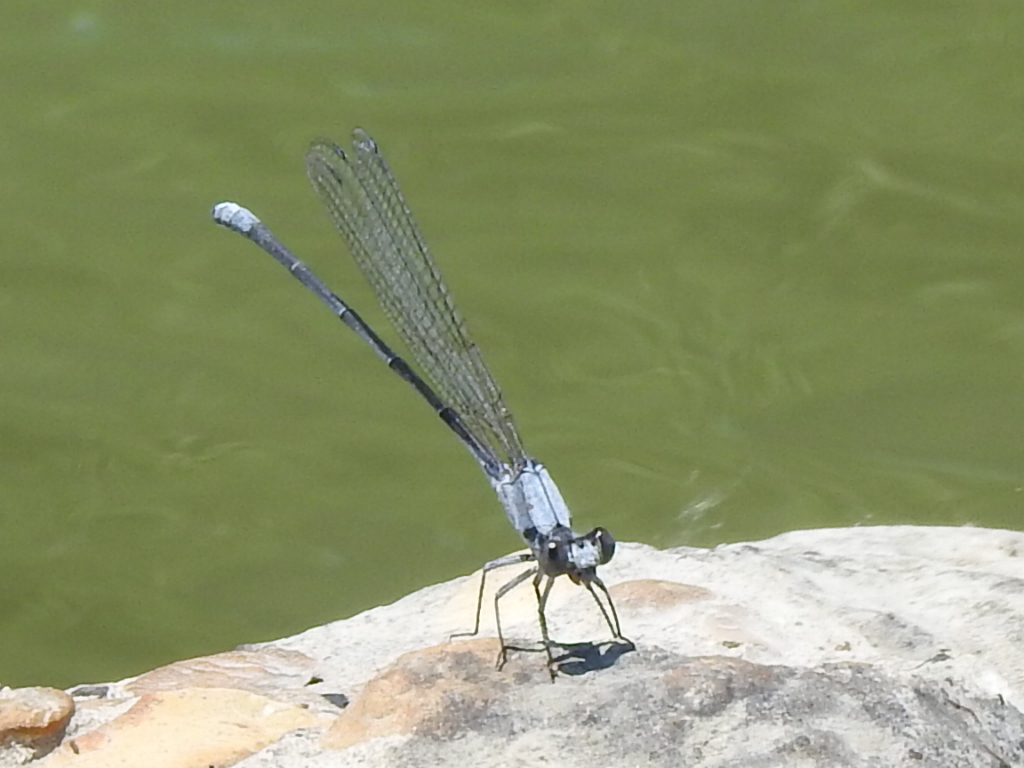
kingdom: Animalia
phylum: Arthropoda
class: Insecta
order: Odonata
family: Coenagrionidae
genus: Argia
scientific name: Argia moesta
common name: Powdered dancer
